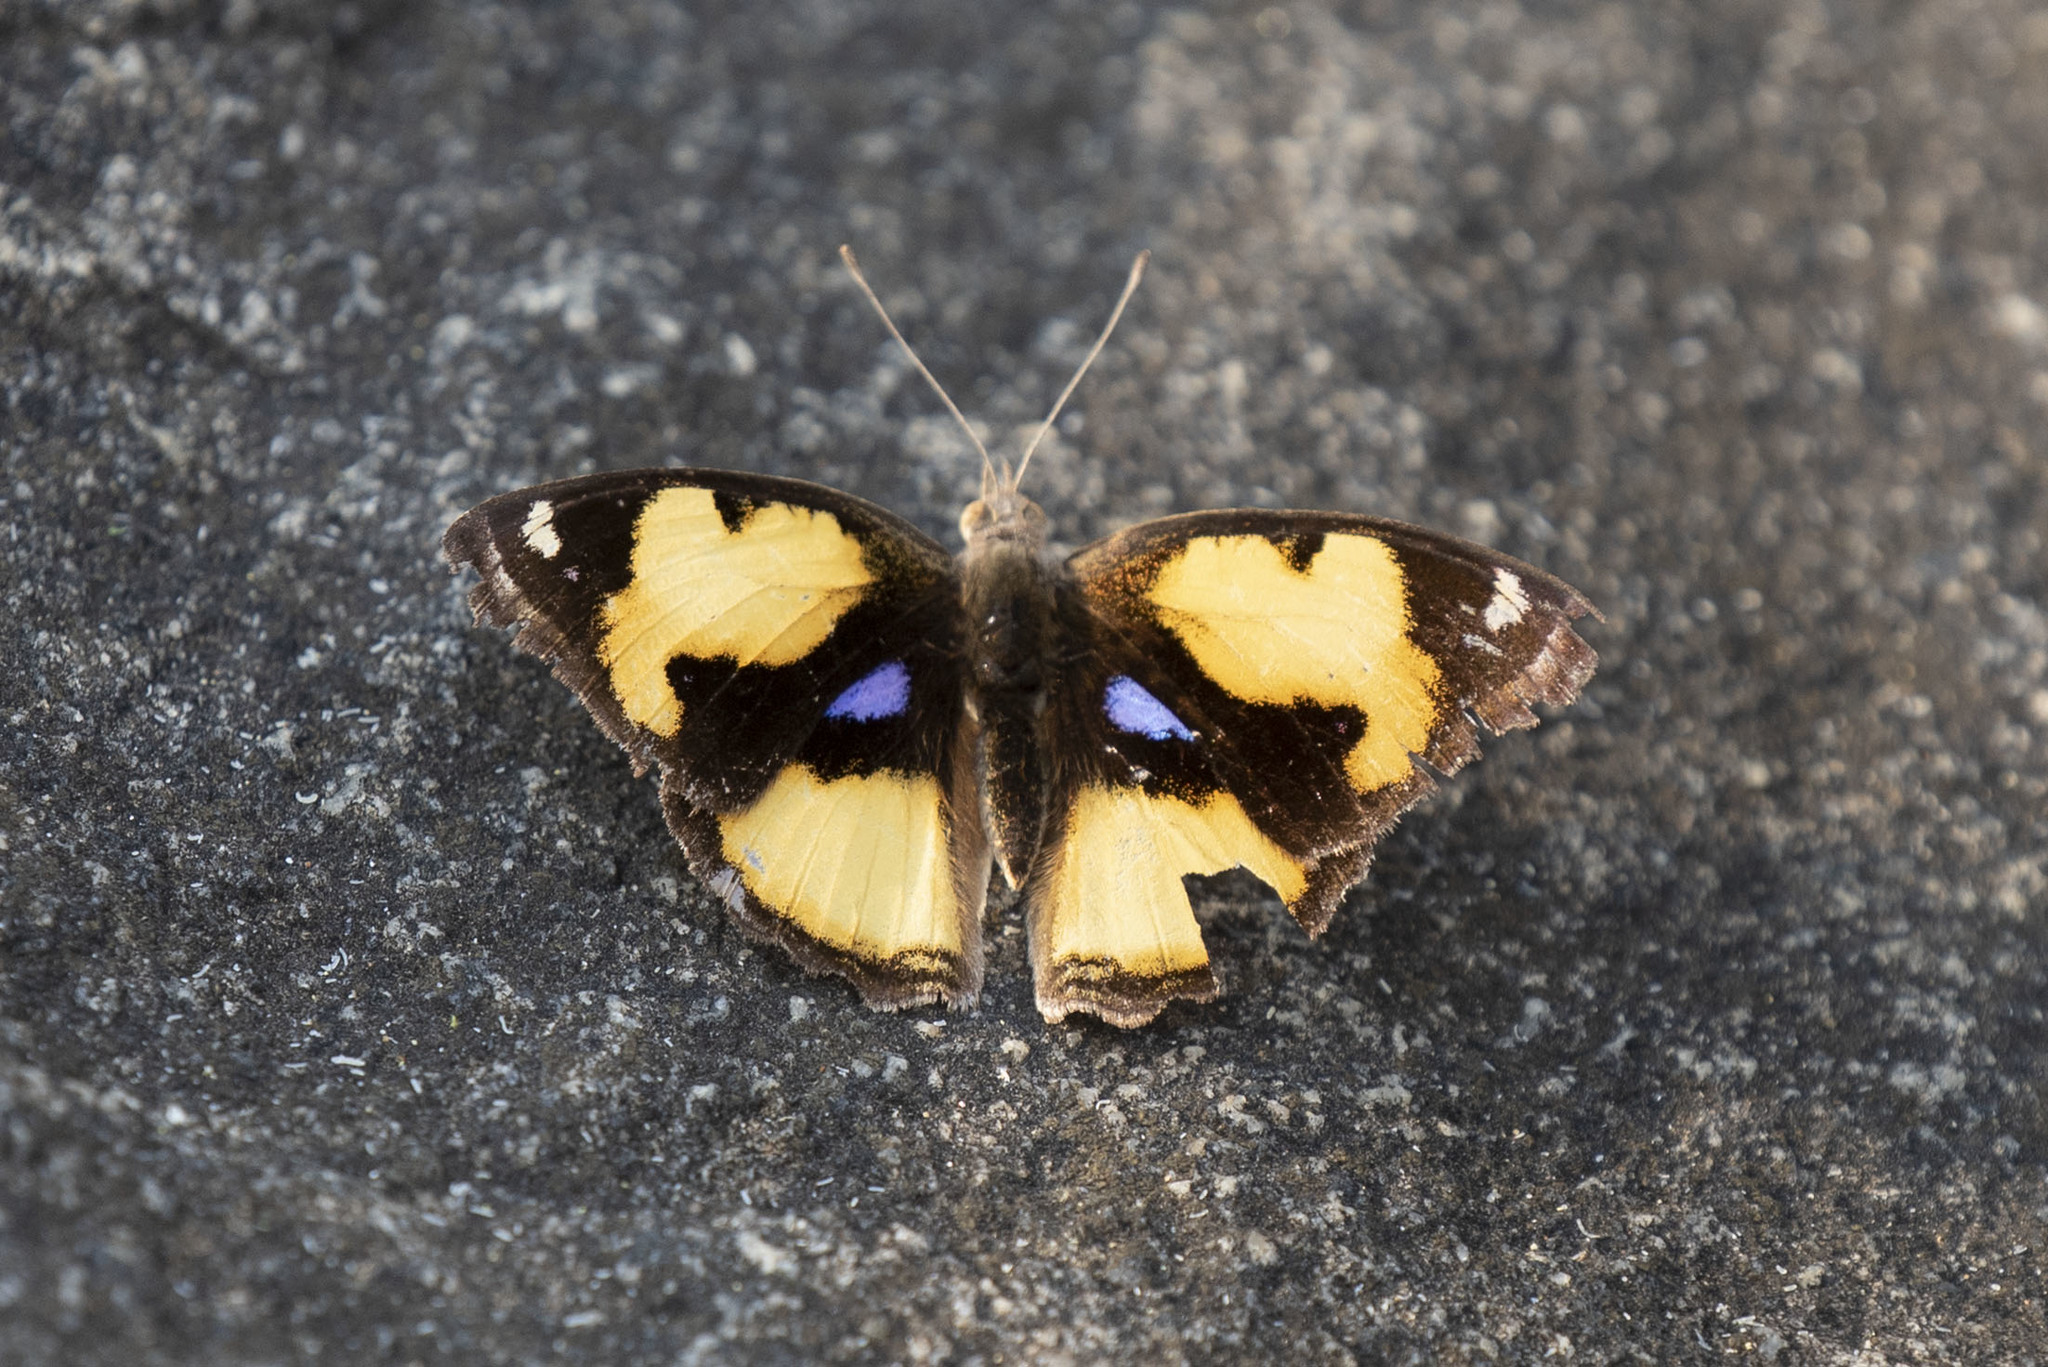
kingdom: Animalia
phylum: Arthropoda
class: Insecta
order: Lepidoptera
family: Nymphalidae
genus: Junonia
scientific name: Junonia hierta
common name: Yellow pansy
